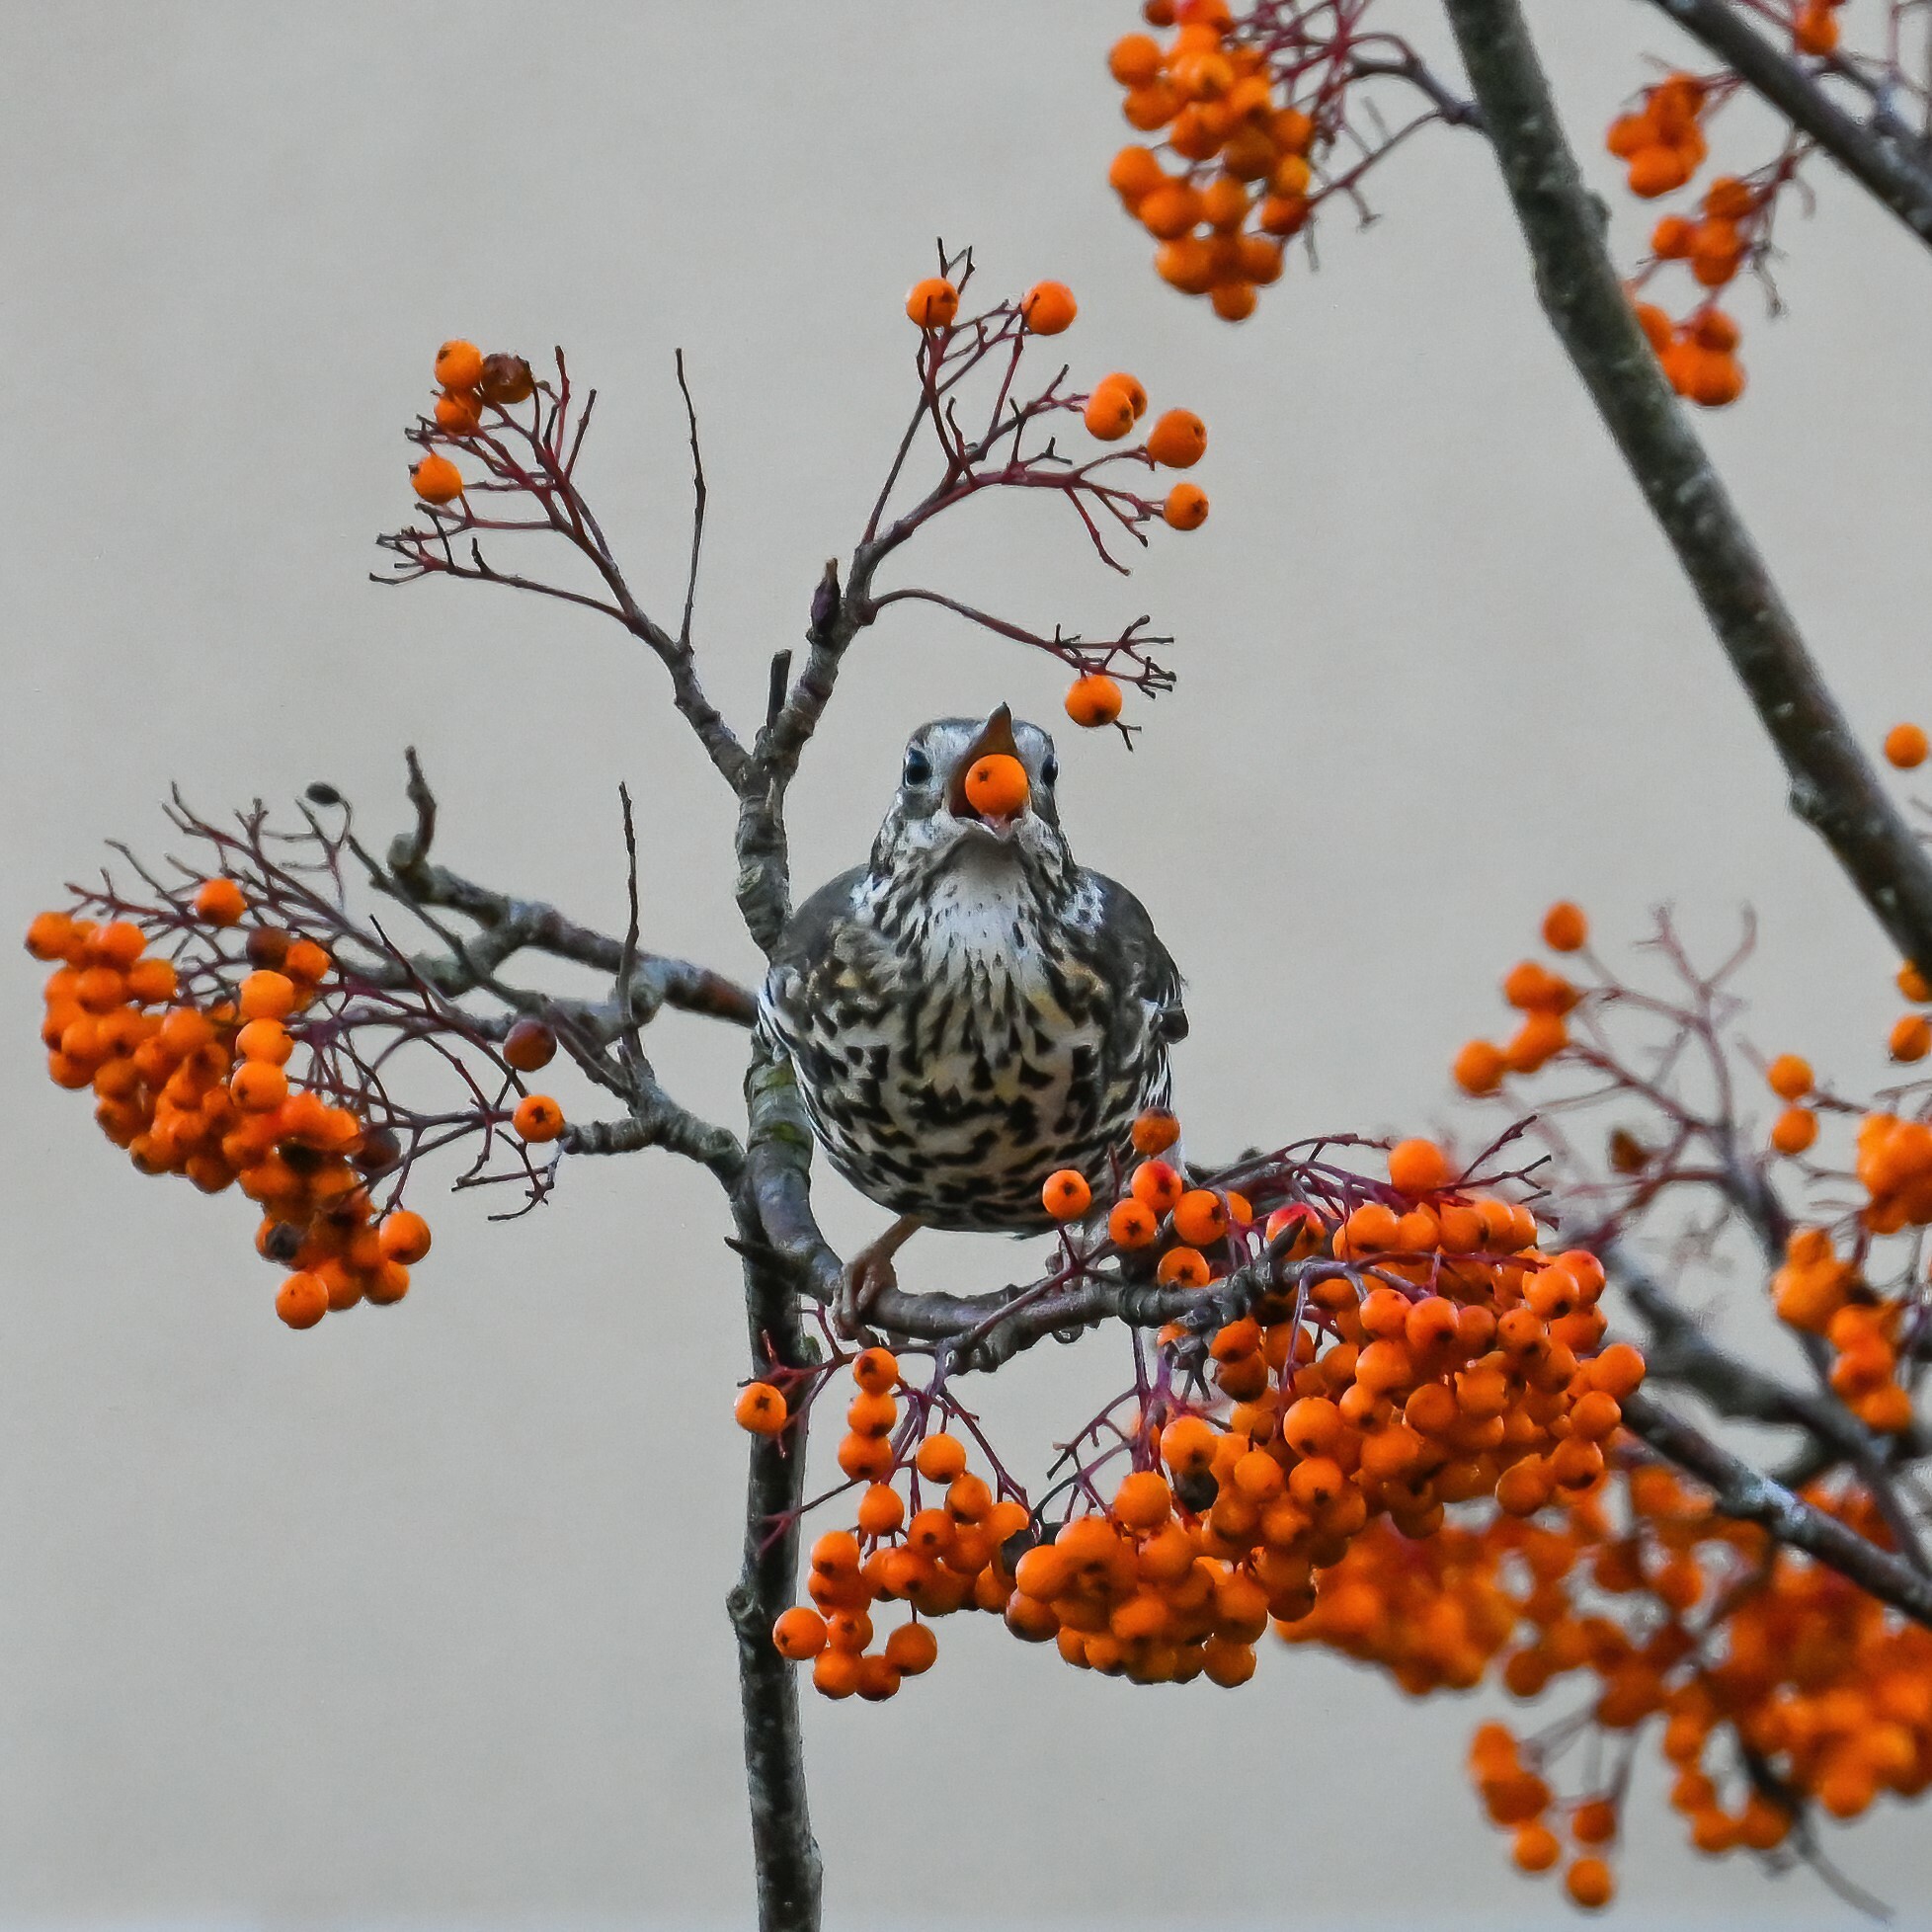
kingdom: Animalia
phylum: Chordata
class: Aves
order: Passeriformes
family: Turdidae
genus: Turdus
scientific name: Turdus viscivorus
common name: Mistle thrush
